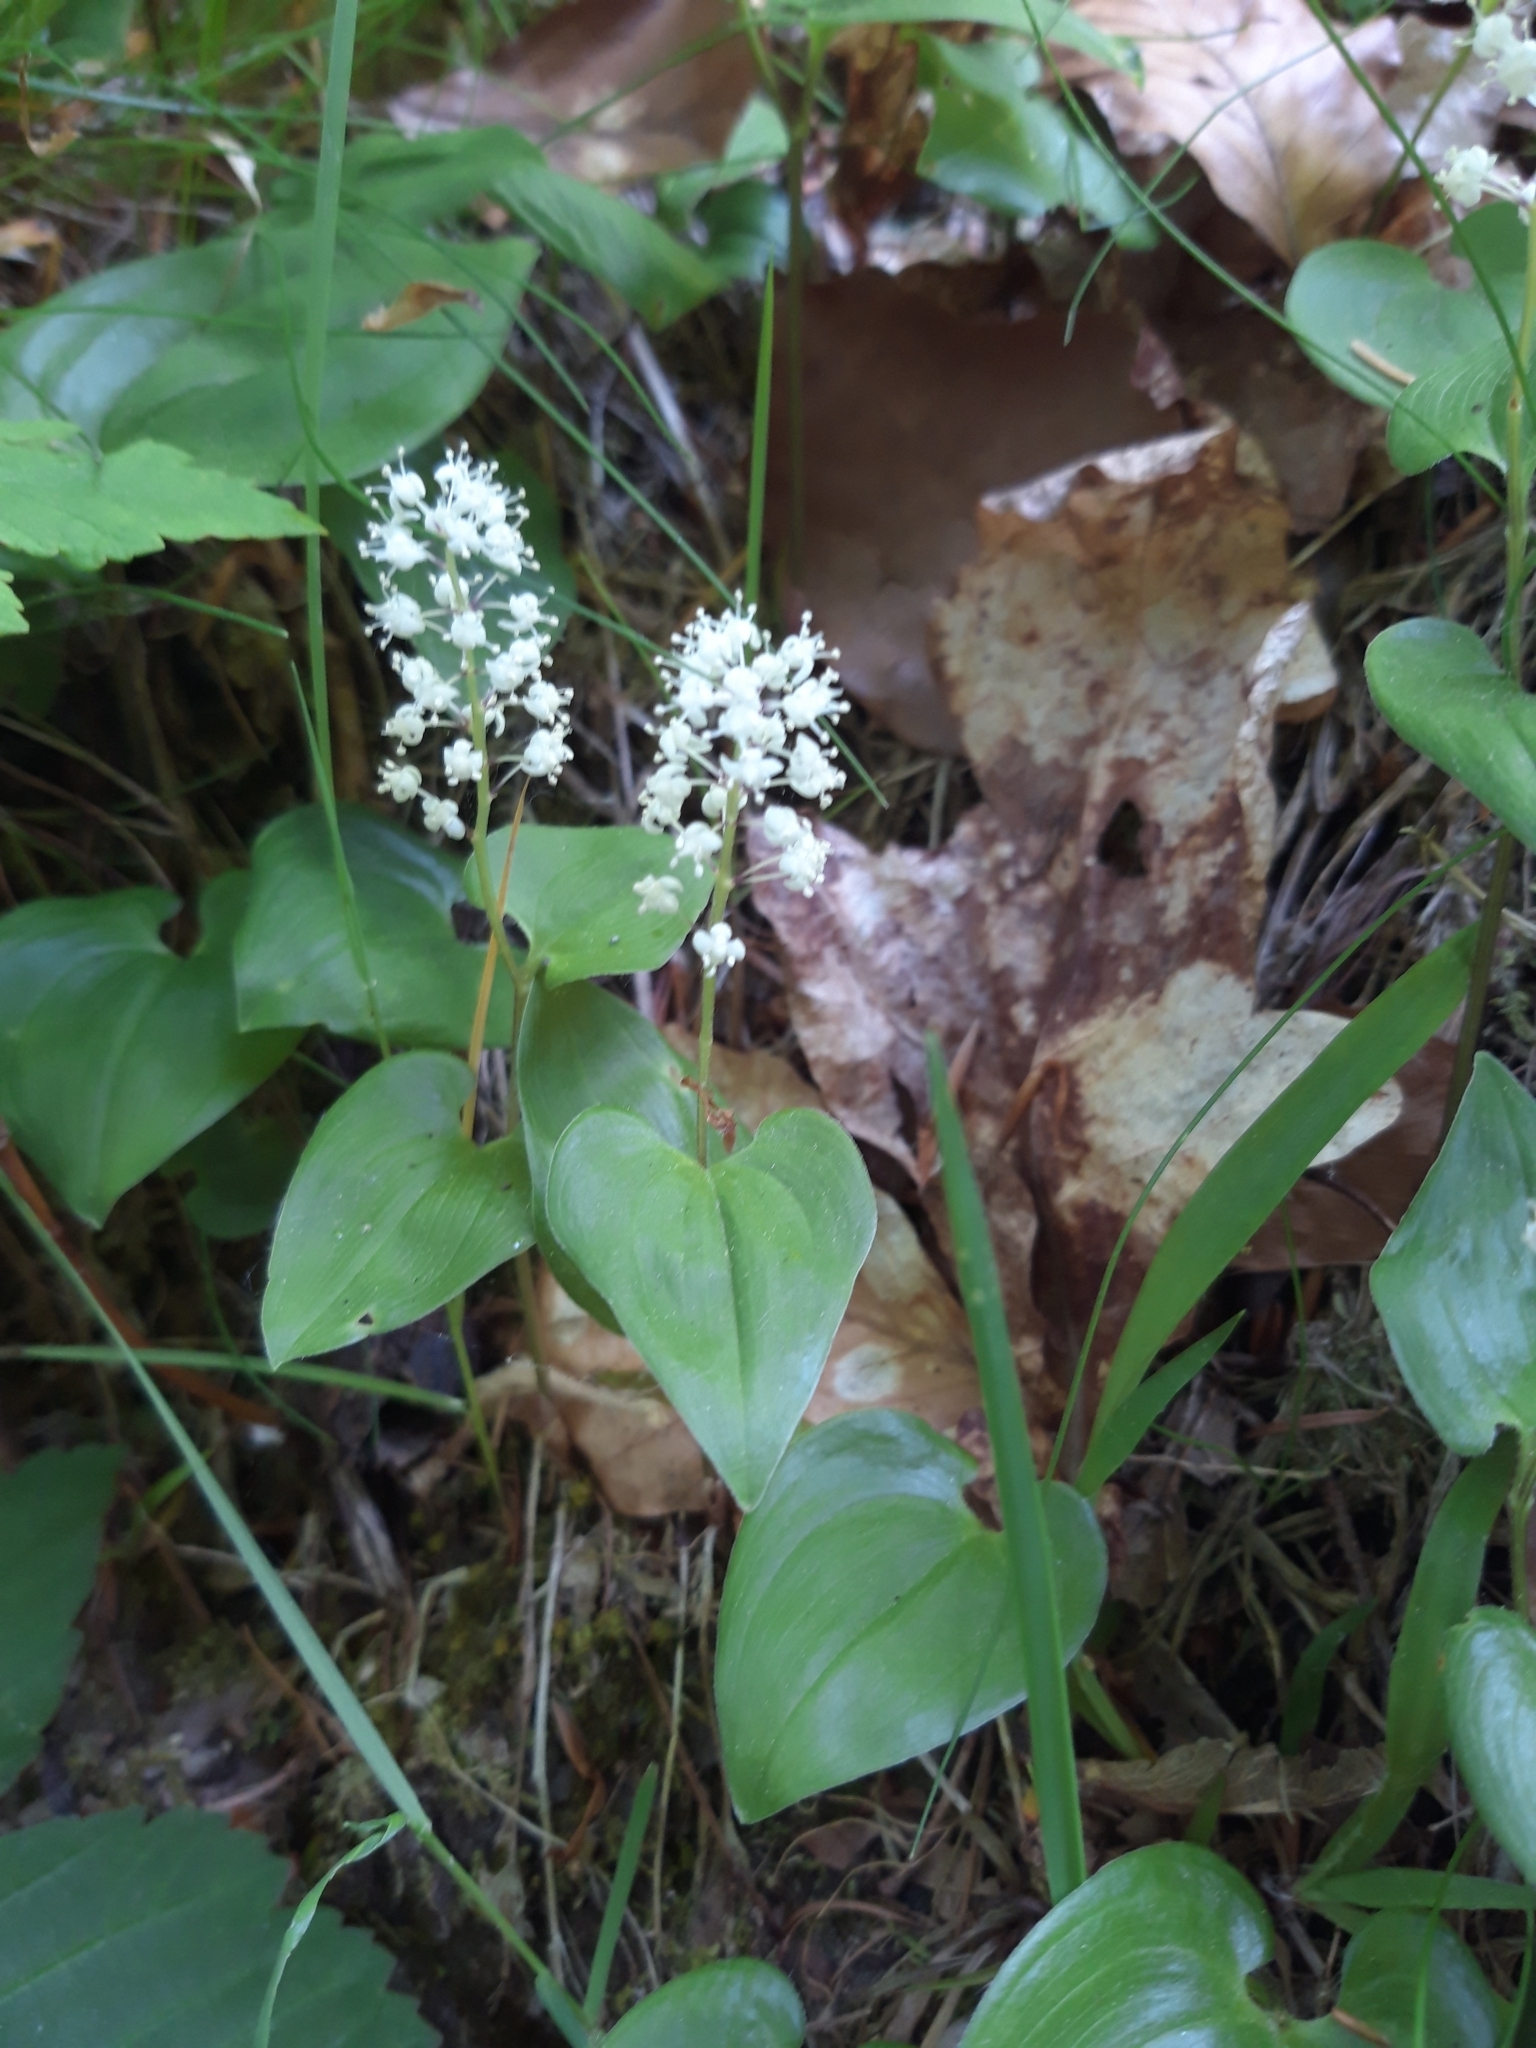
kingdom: Plantae
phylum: Tracheophyta
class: Liliopsida
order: Asparagales
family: Asparagaceae
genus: Maianthemum
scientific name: Maianthemum bifolium
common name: May lily
